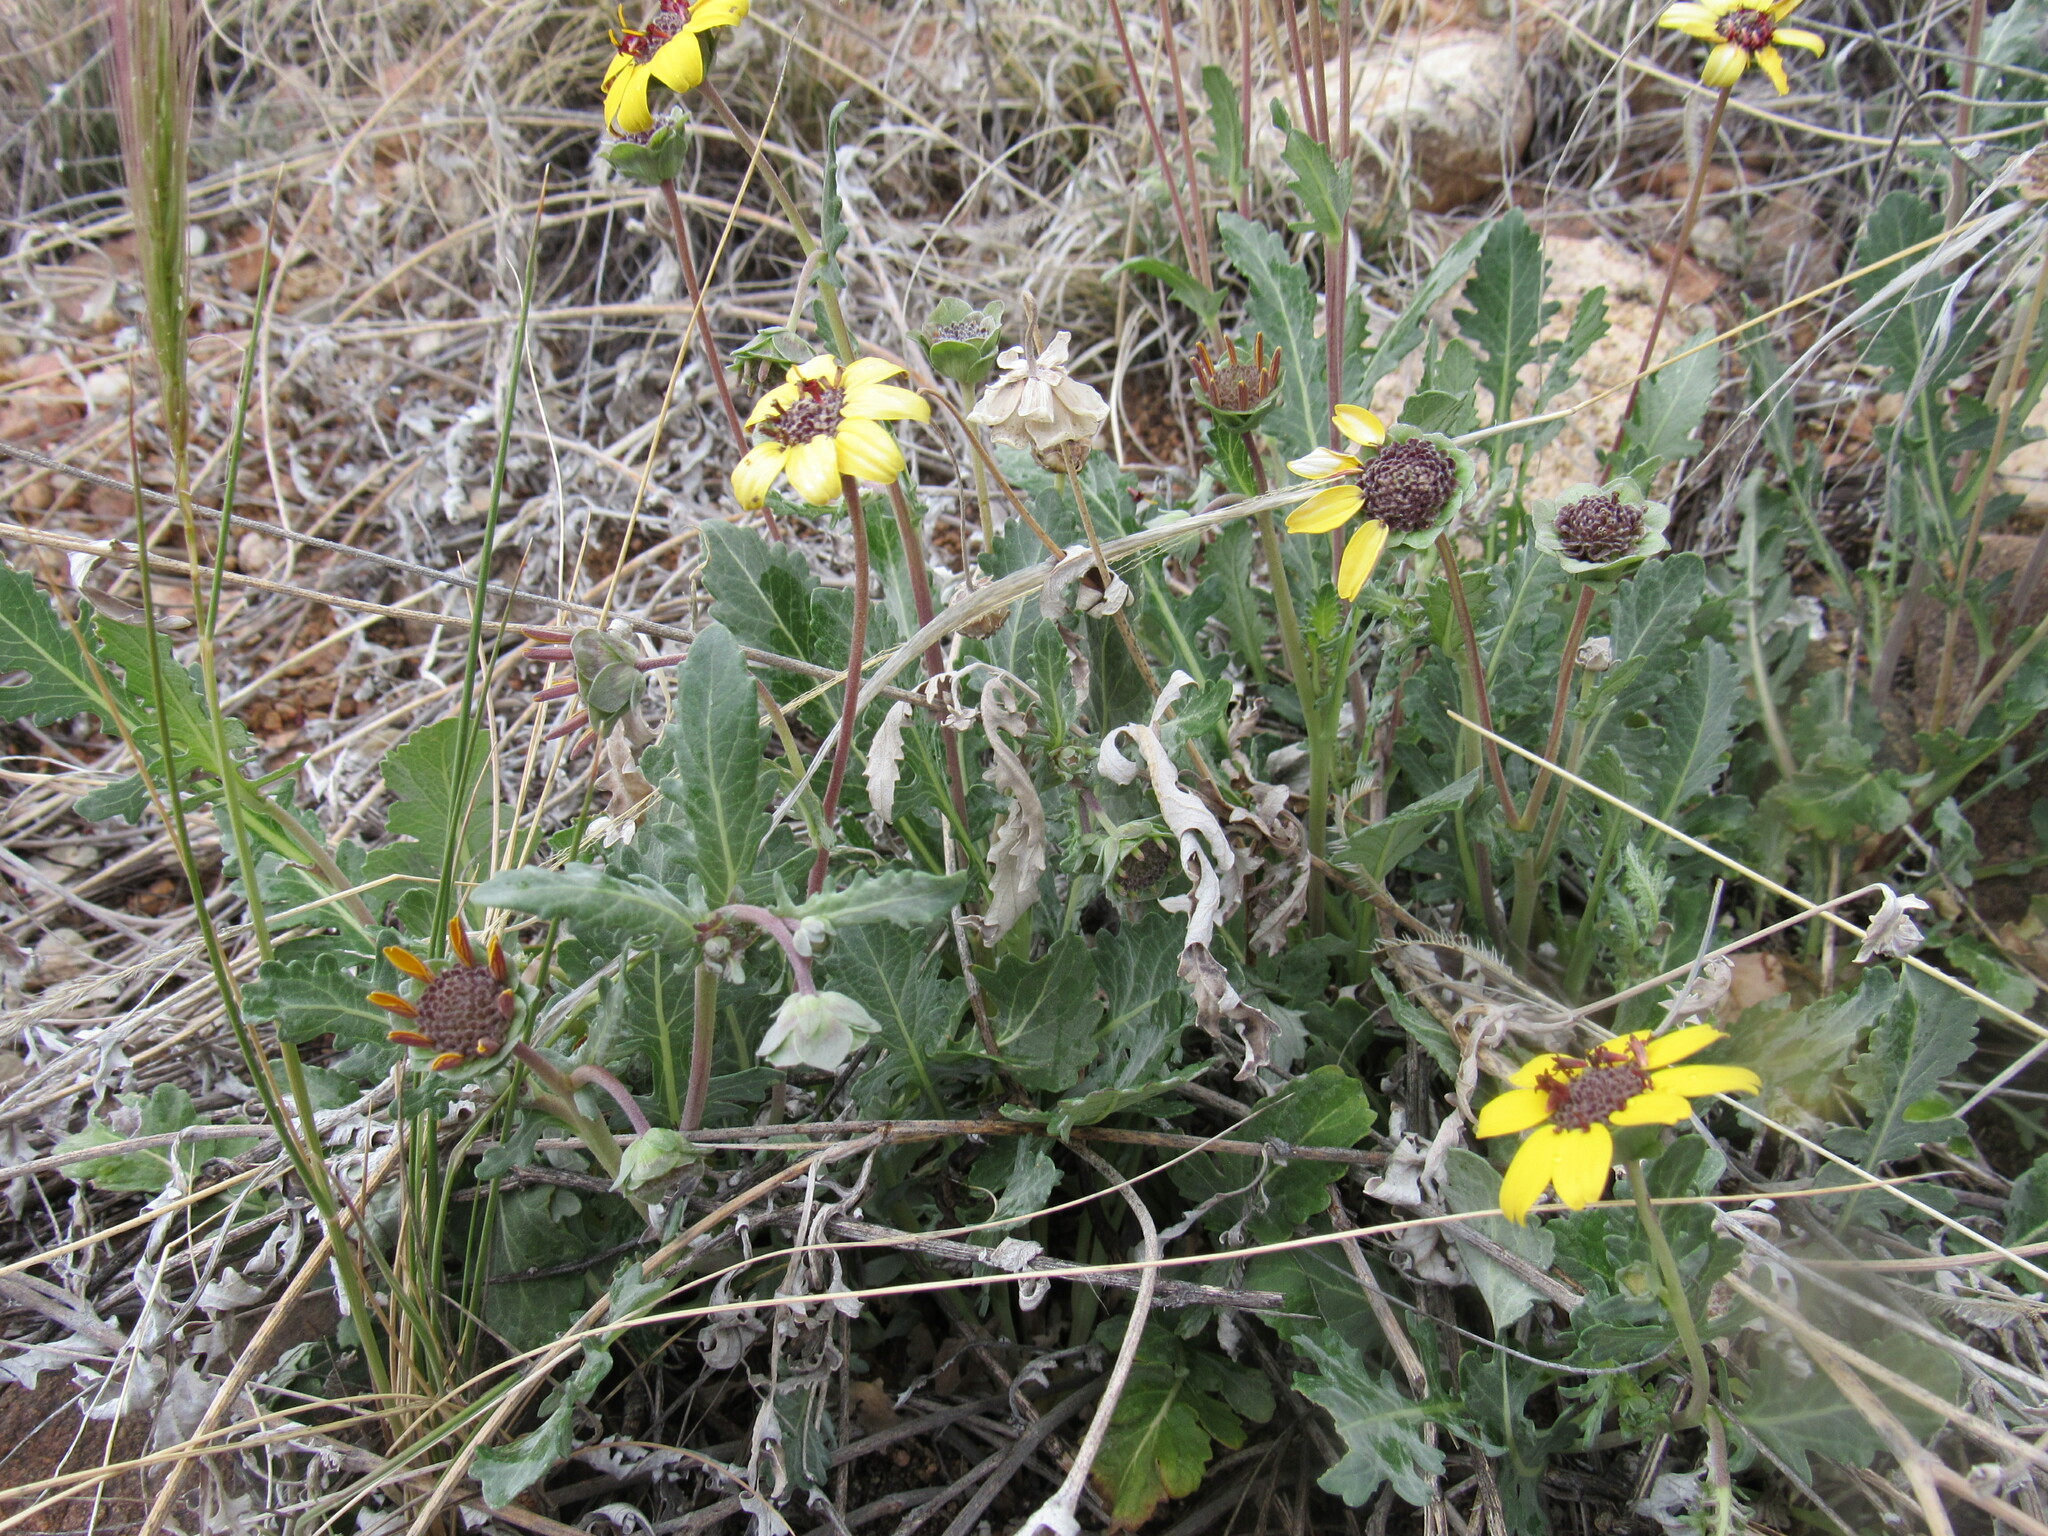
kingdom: Plantae
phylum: Tracheophyta
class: Magnoliopsida
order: Asterales
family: Asteraceae
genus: Berlandiera
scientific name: Berlandiera lyrata
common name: Chocolate-flower
